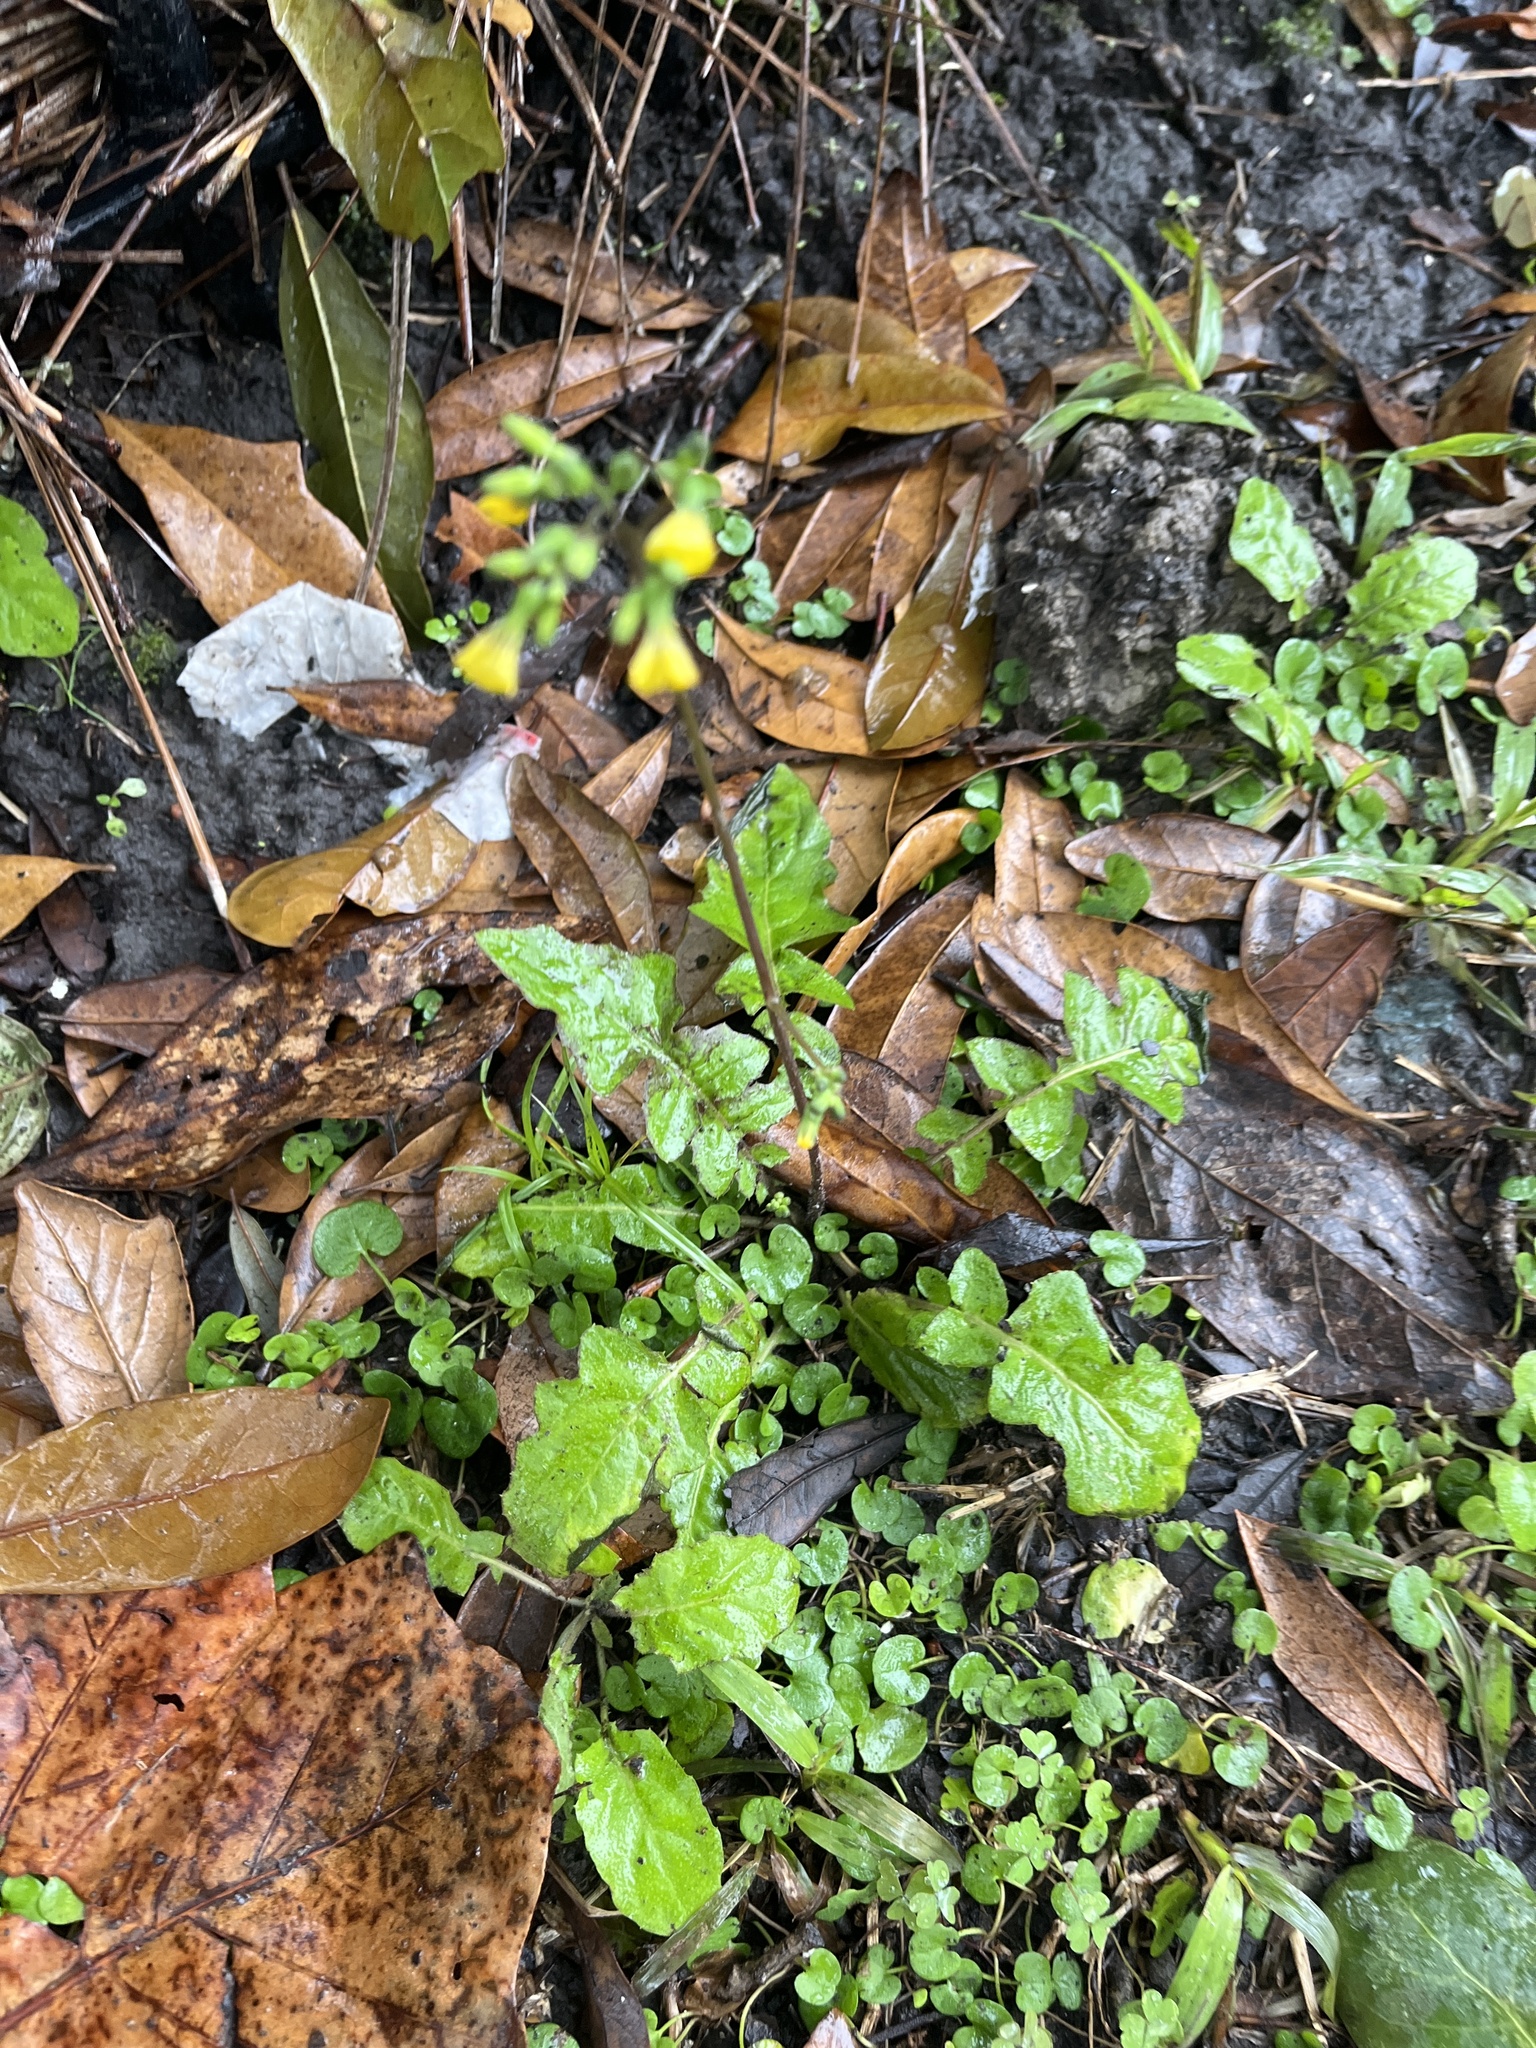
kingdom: Plantae
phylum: Tracheophyta
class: Magnoliopsida
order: Asterales
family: Asteraceae
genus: Youngia
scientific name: Youngia japonica
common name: Oriental false hawksbeard
